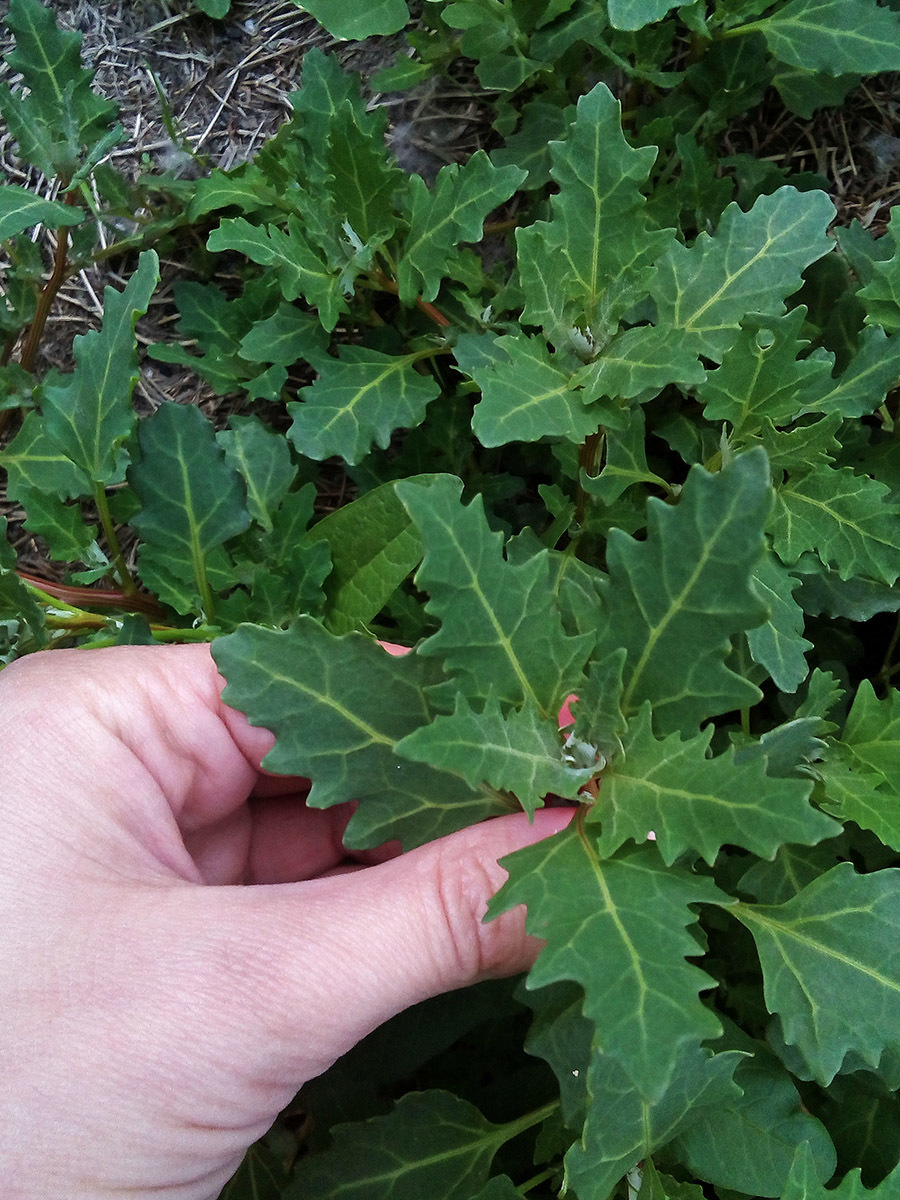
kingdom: Plantae
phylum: Tracheophyta
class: Magnoliopsida
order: Caryophyllales
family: Amaranthaceae
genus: Oxybasis
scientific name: Oxybasis glauca
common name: Glaucous goosefoot
